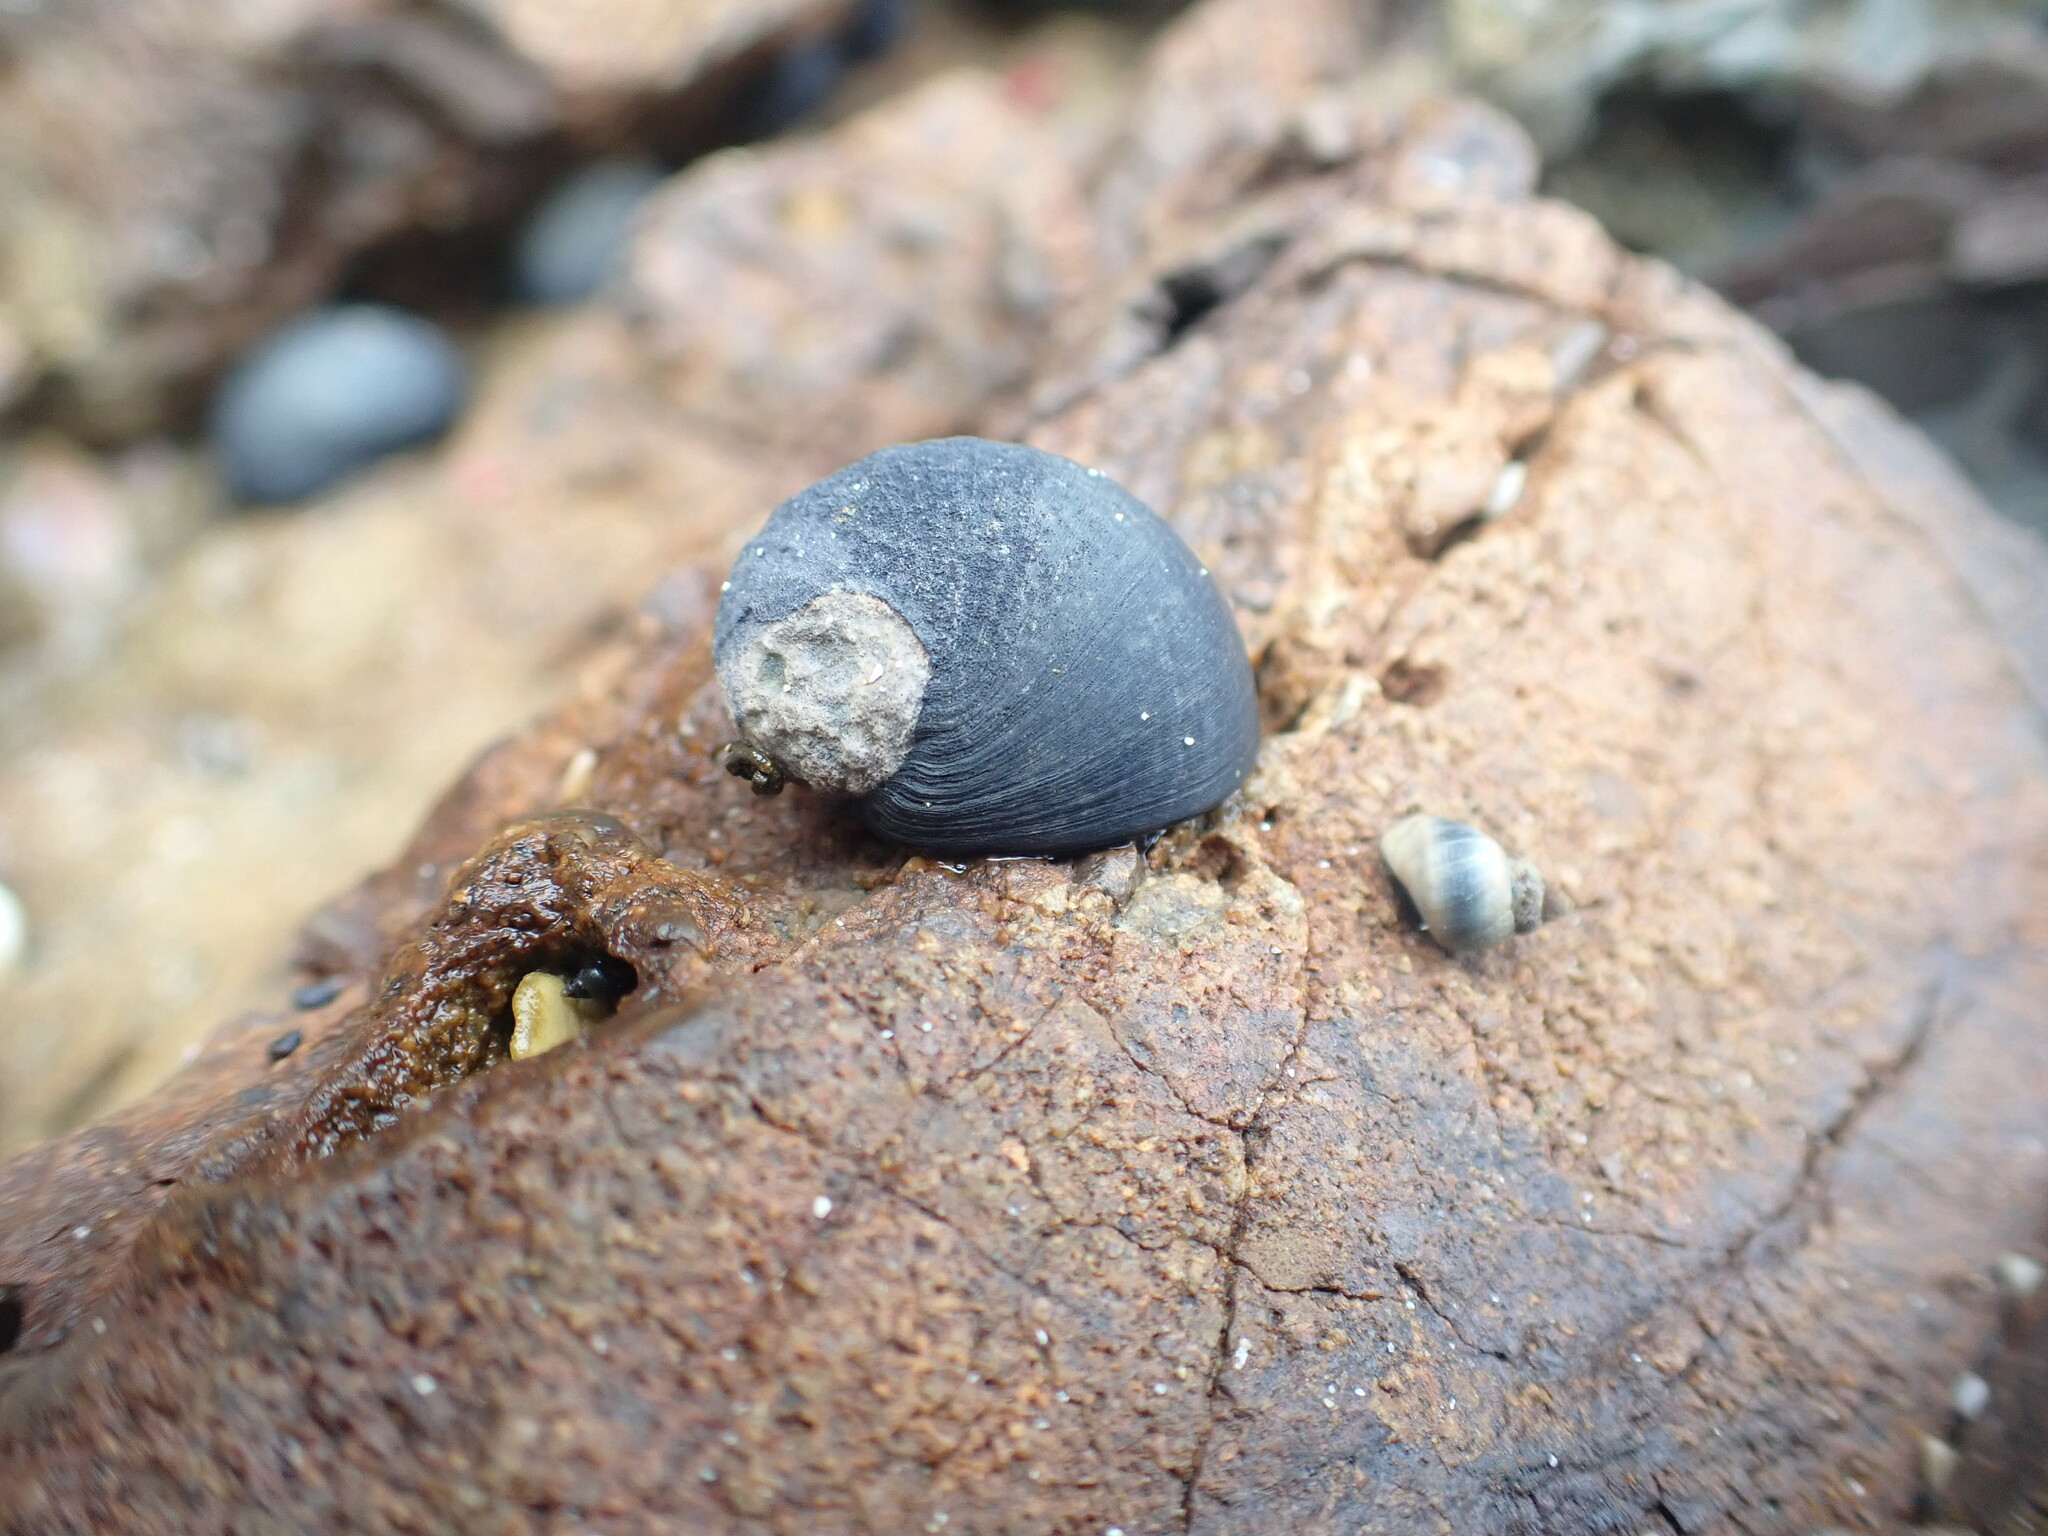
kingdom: Animalia
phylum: Mollusca
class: Gastropoda
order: Cycloneritida
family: Neritidae
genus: Nerita
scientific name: Nerita melanotragus
